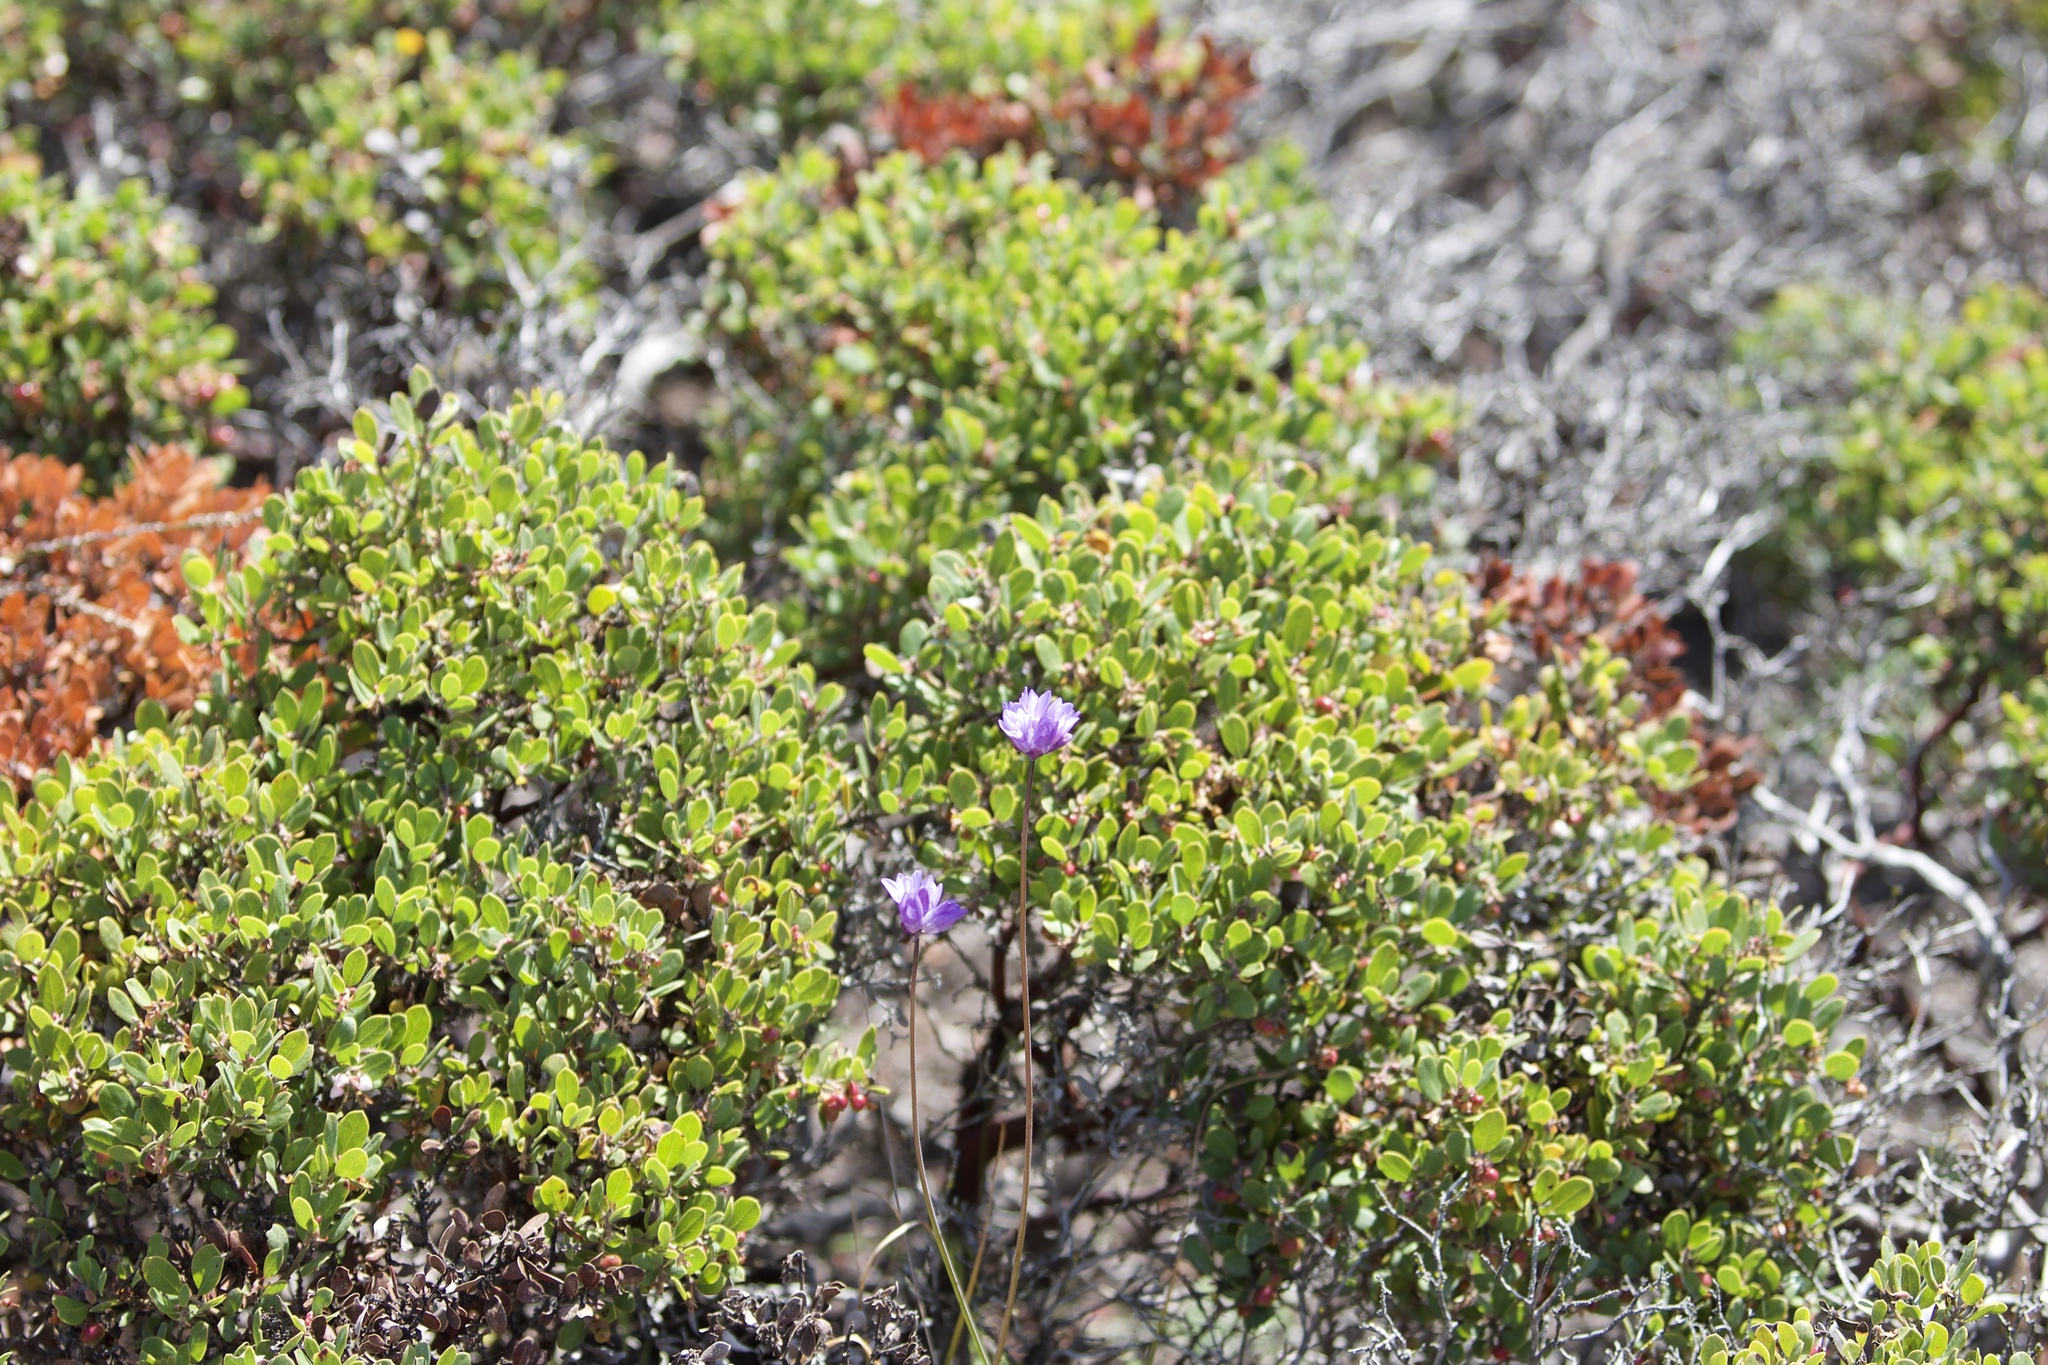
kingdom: Plantae
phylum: Tracheophyta
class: Liliopsida
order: Asparagales
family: Asparagaceae
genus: Dipterostemon
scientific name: Dipterostemon capitatus
